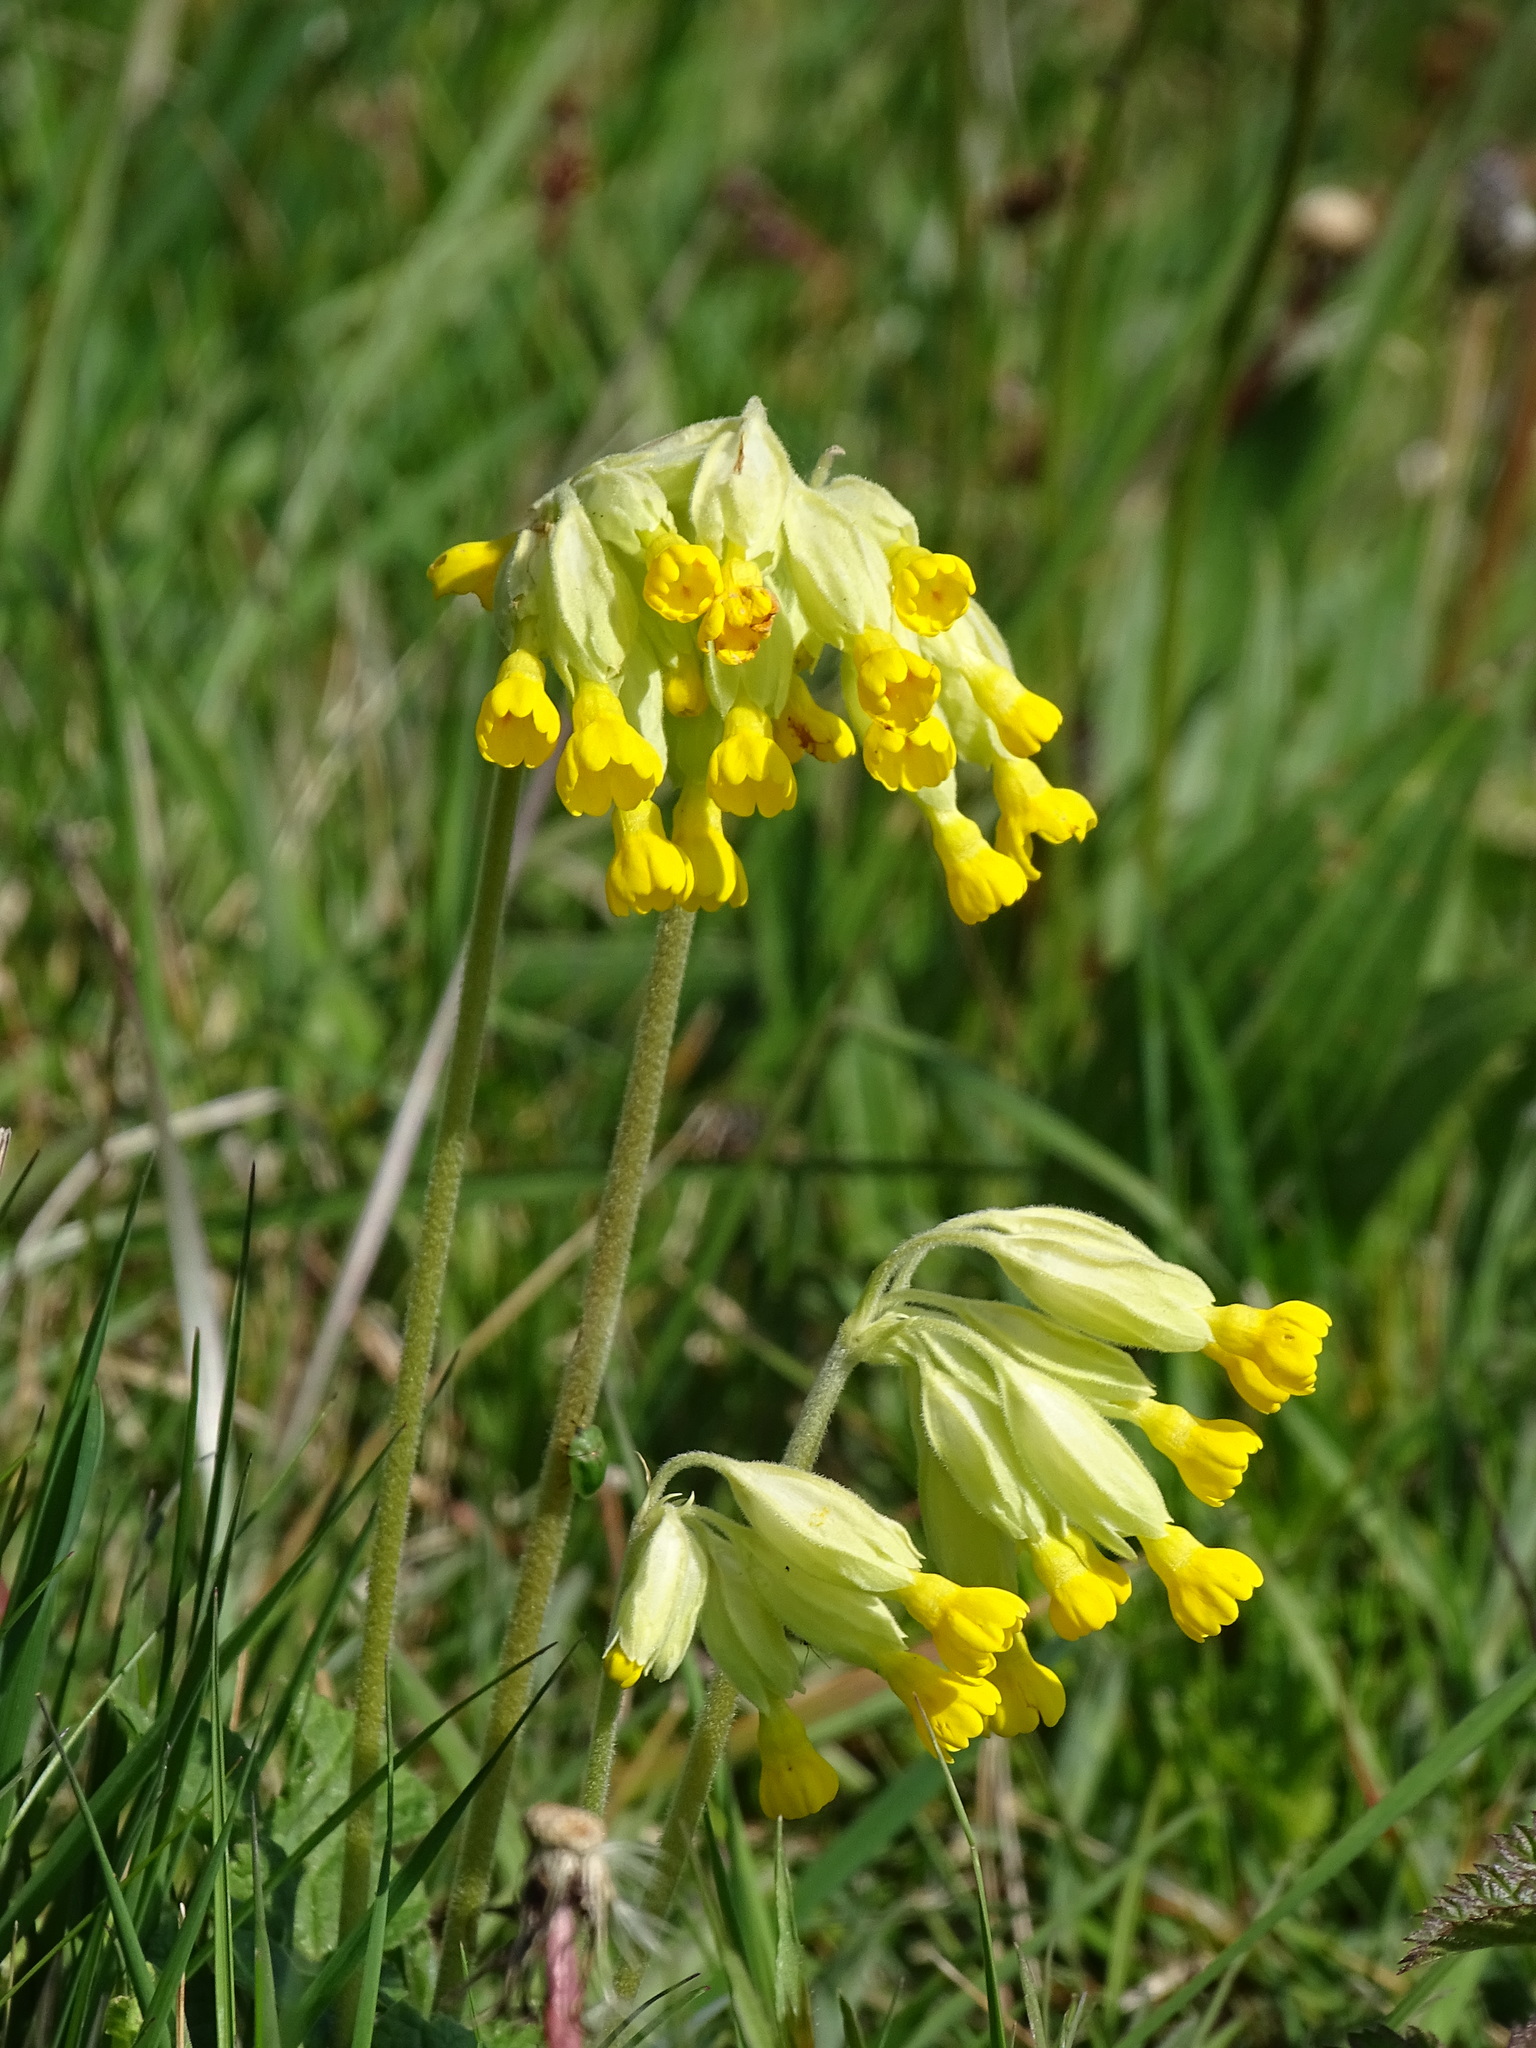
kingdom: Plantae
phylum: Tracheophyta
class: Magnoliopsida
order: Ericales
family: Primulaceae
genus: Primula
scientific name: Primula veris
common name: Cowslip
